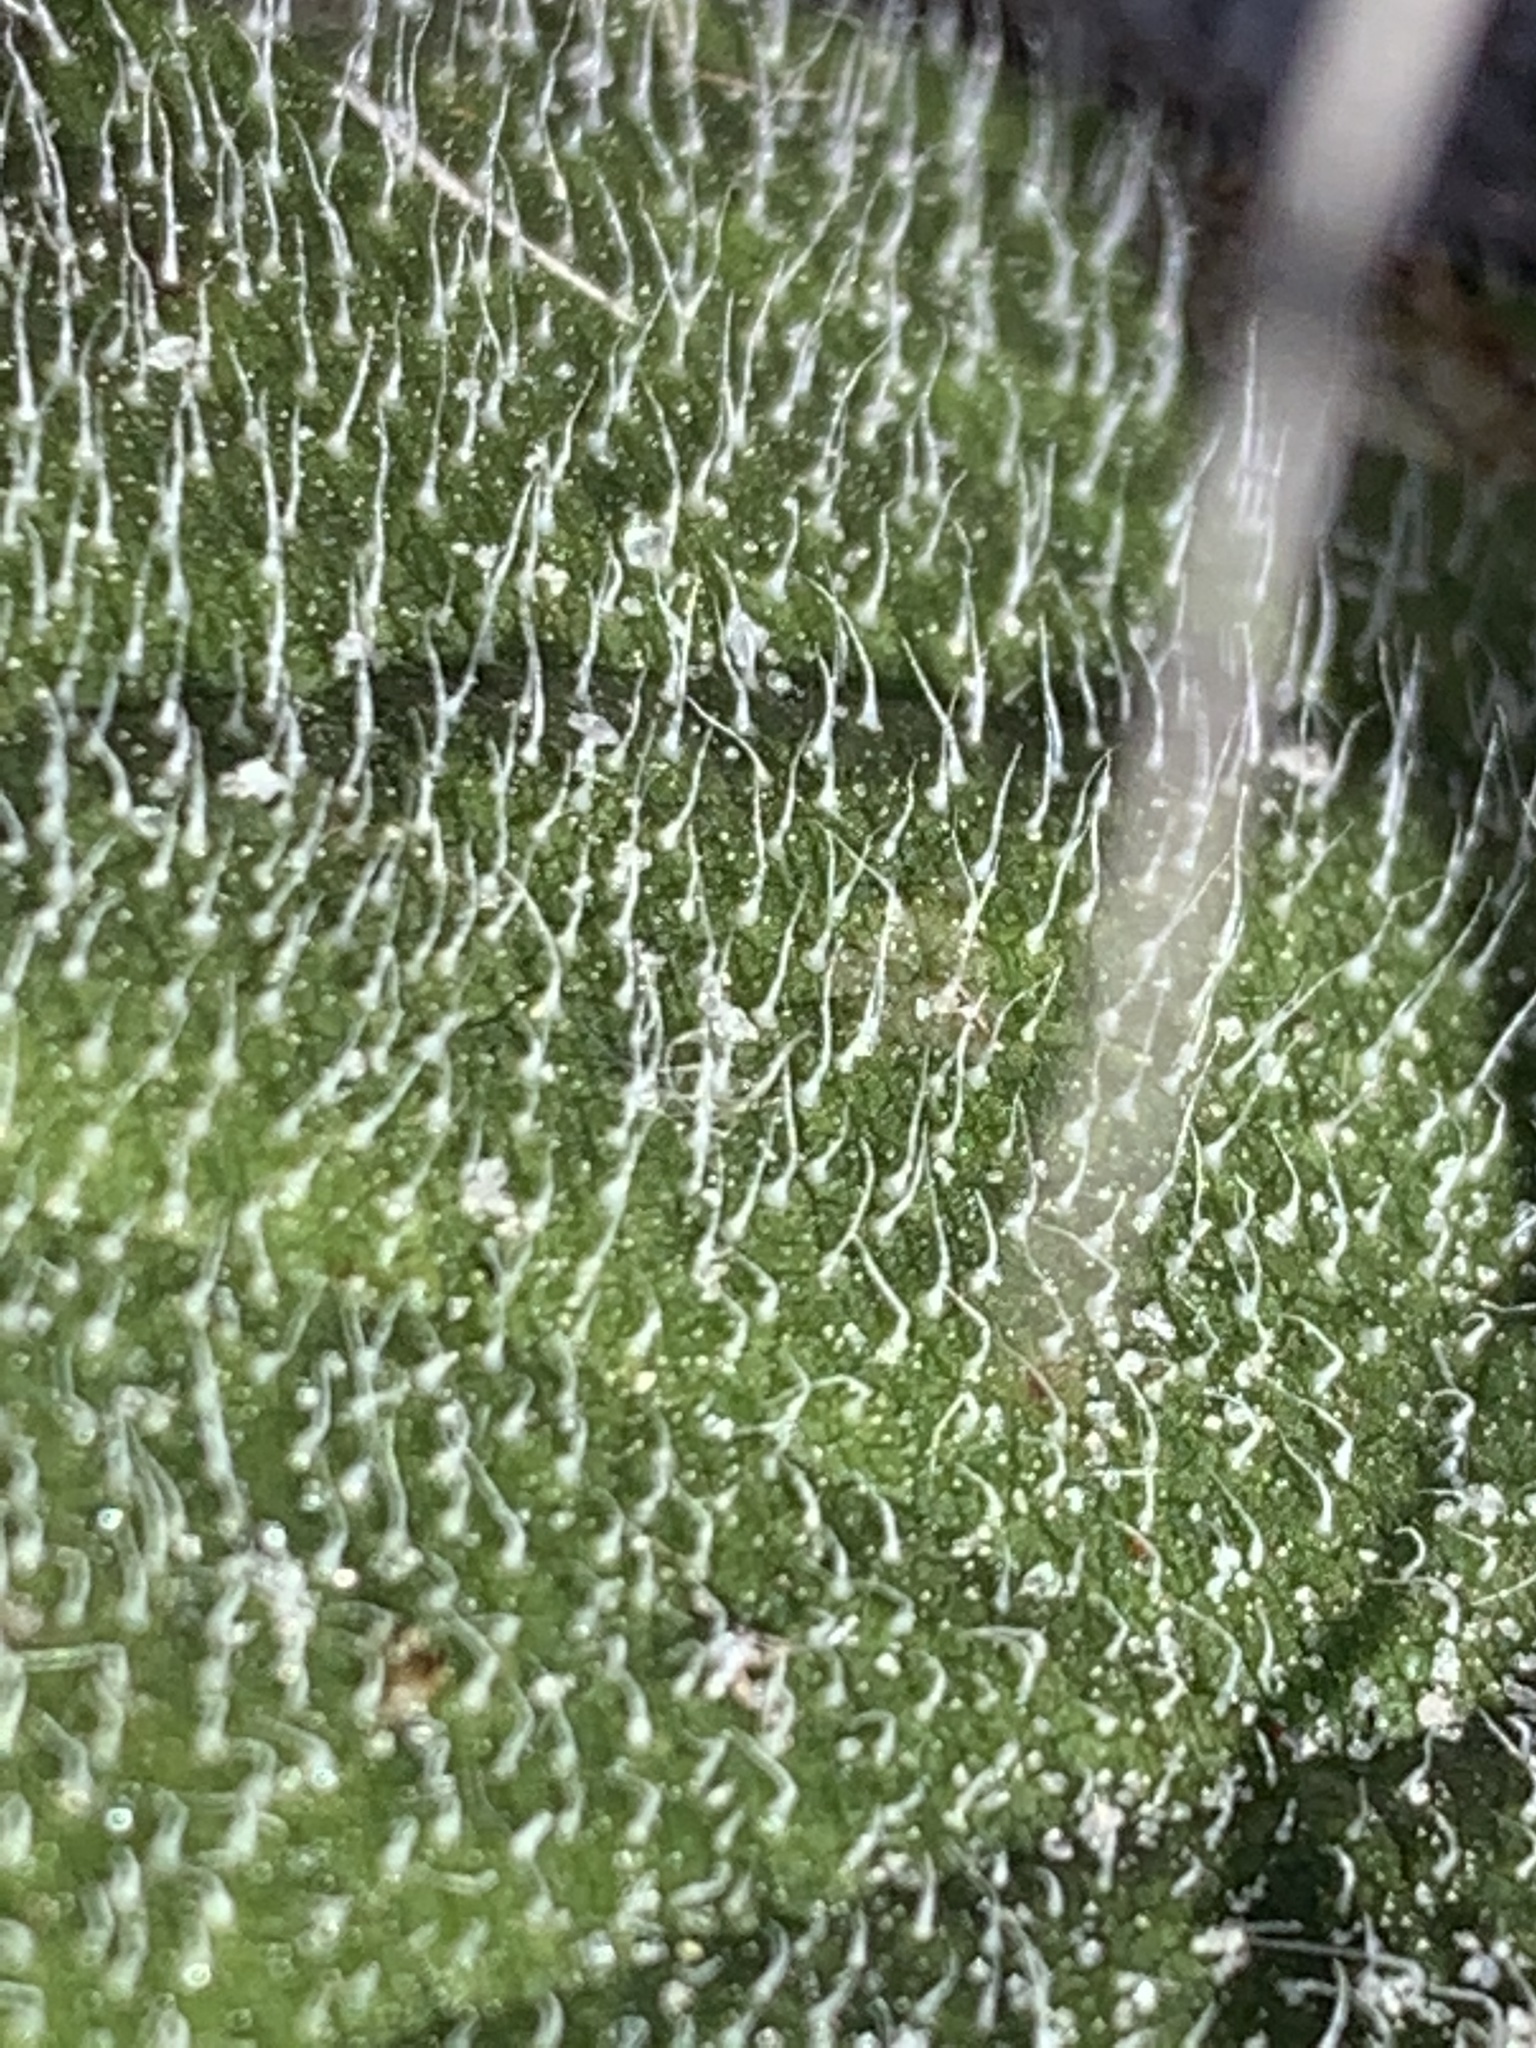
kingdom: Plantae
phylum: Tracheophyta
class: Magnoliopsida
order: Asterales
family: Asteraceae
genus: Helianthus
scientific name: Helianthus radula
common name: Pineland sunflower
